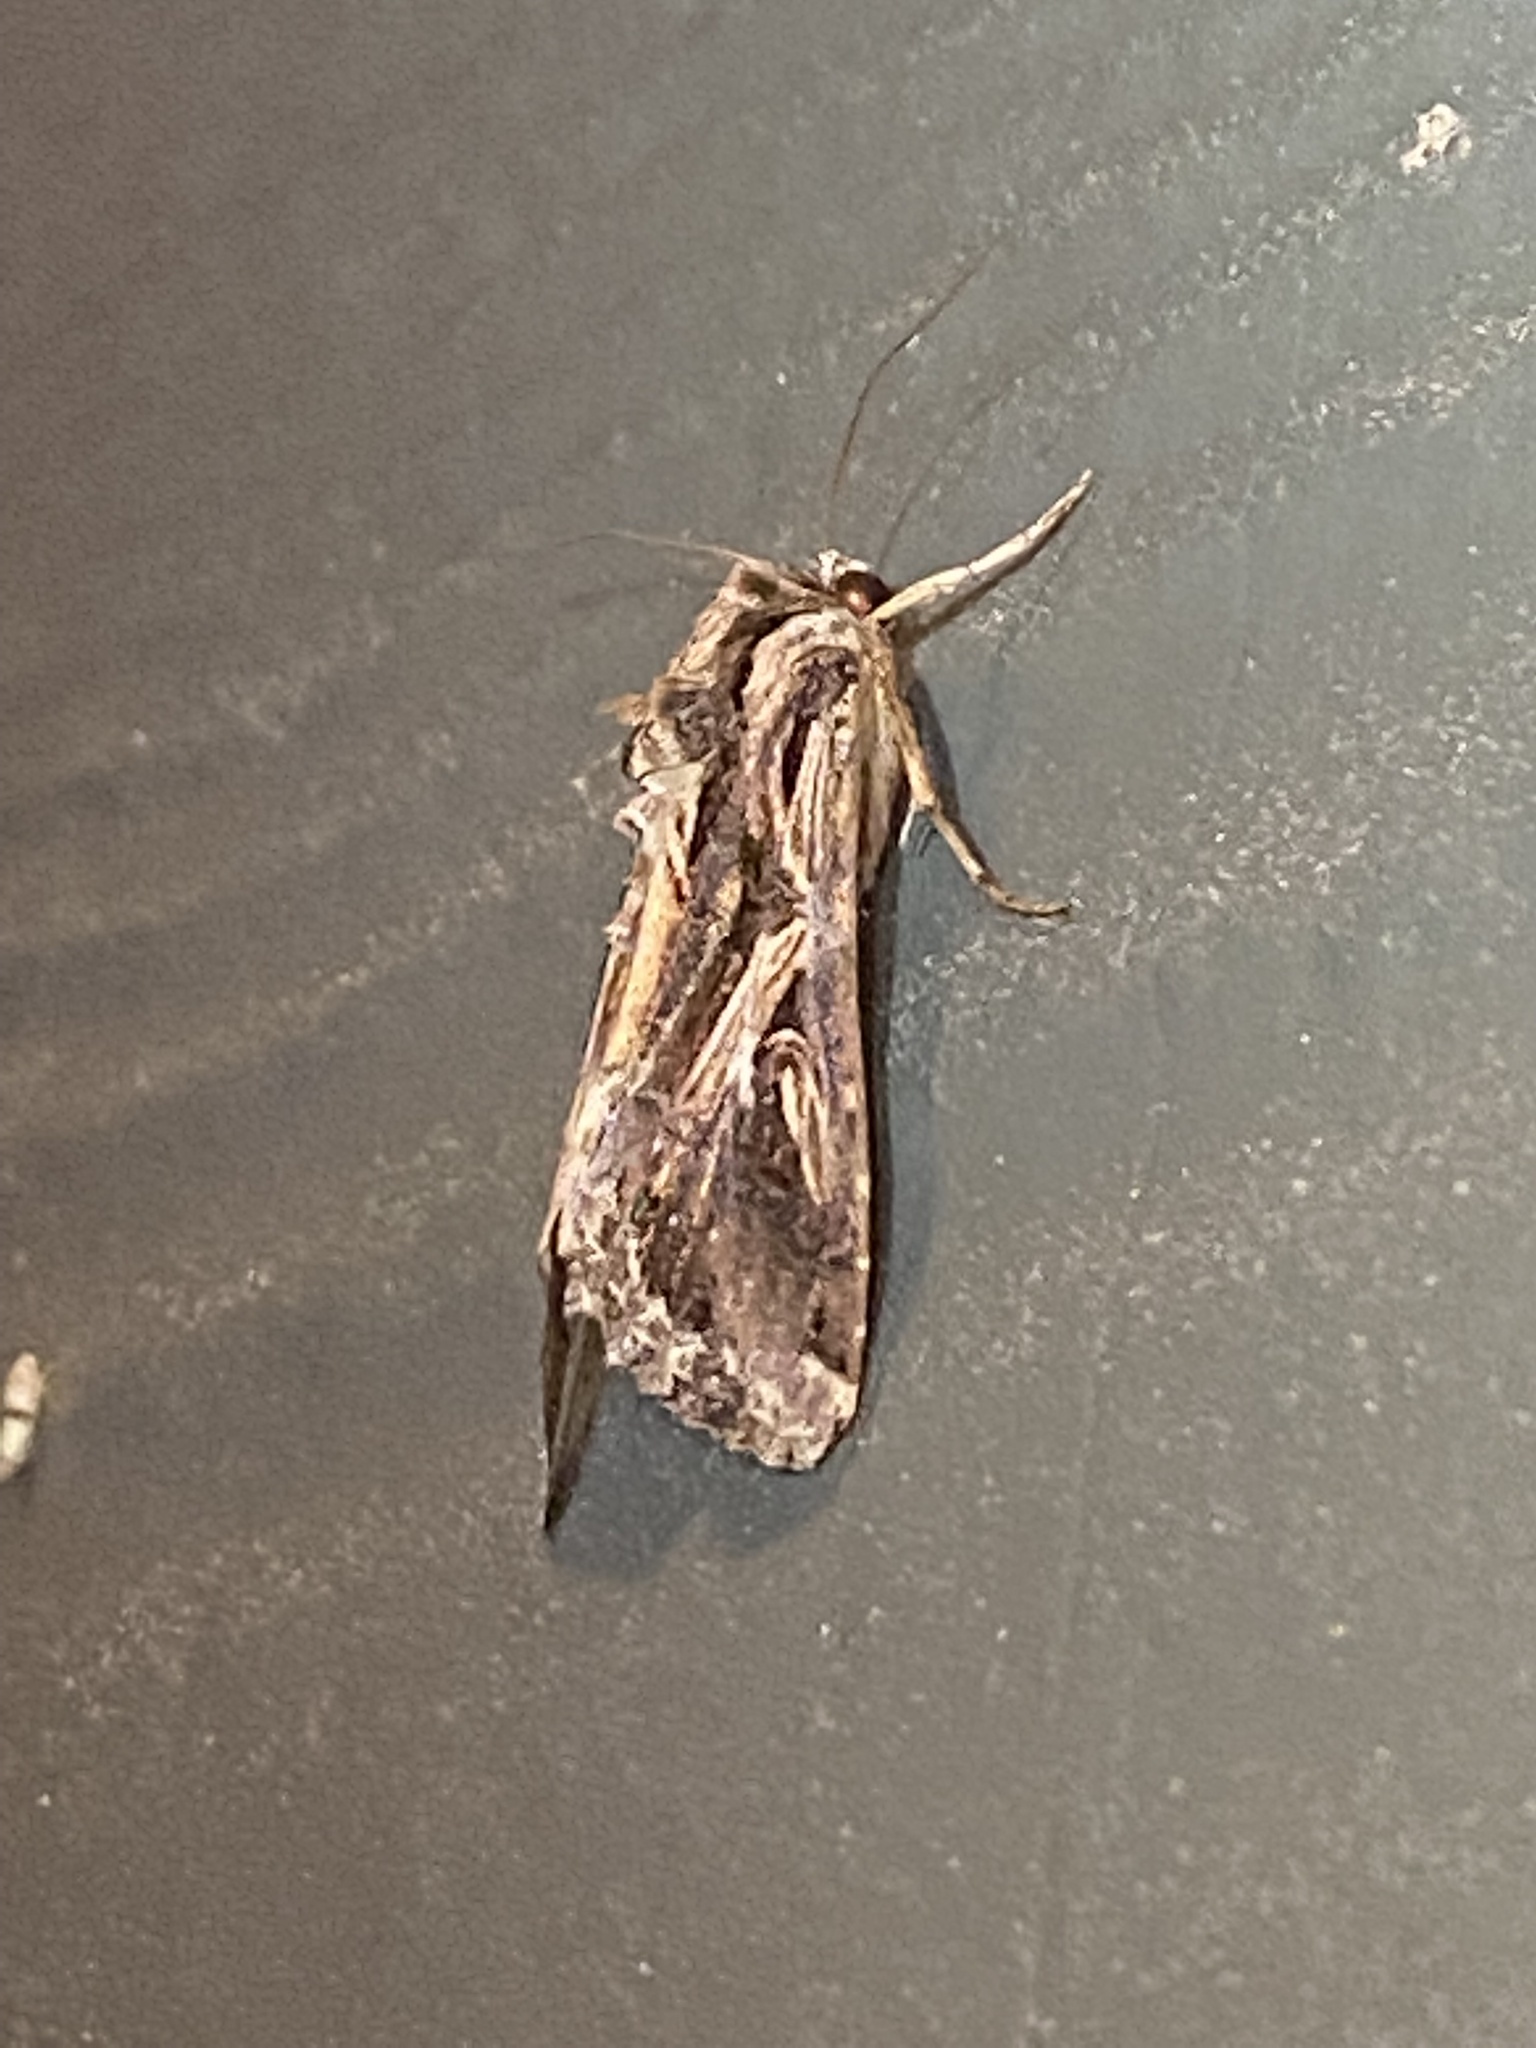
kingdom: Animalia
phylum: Arthropoda
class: Insecta
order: Lepidoptera
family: Noctuidae
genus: Spodoptera
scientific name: Spodoptera dolichos
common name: Sweetpotato armyworm
